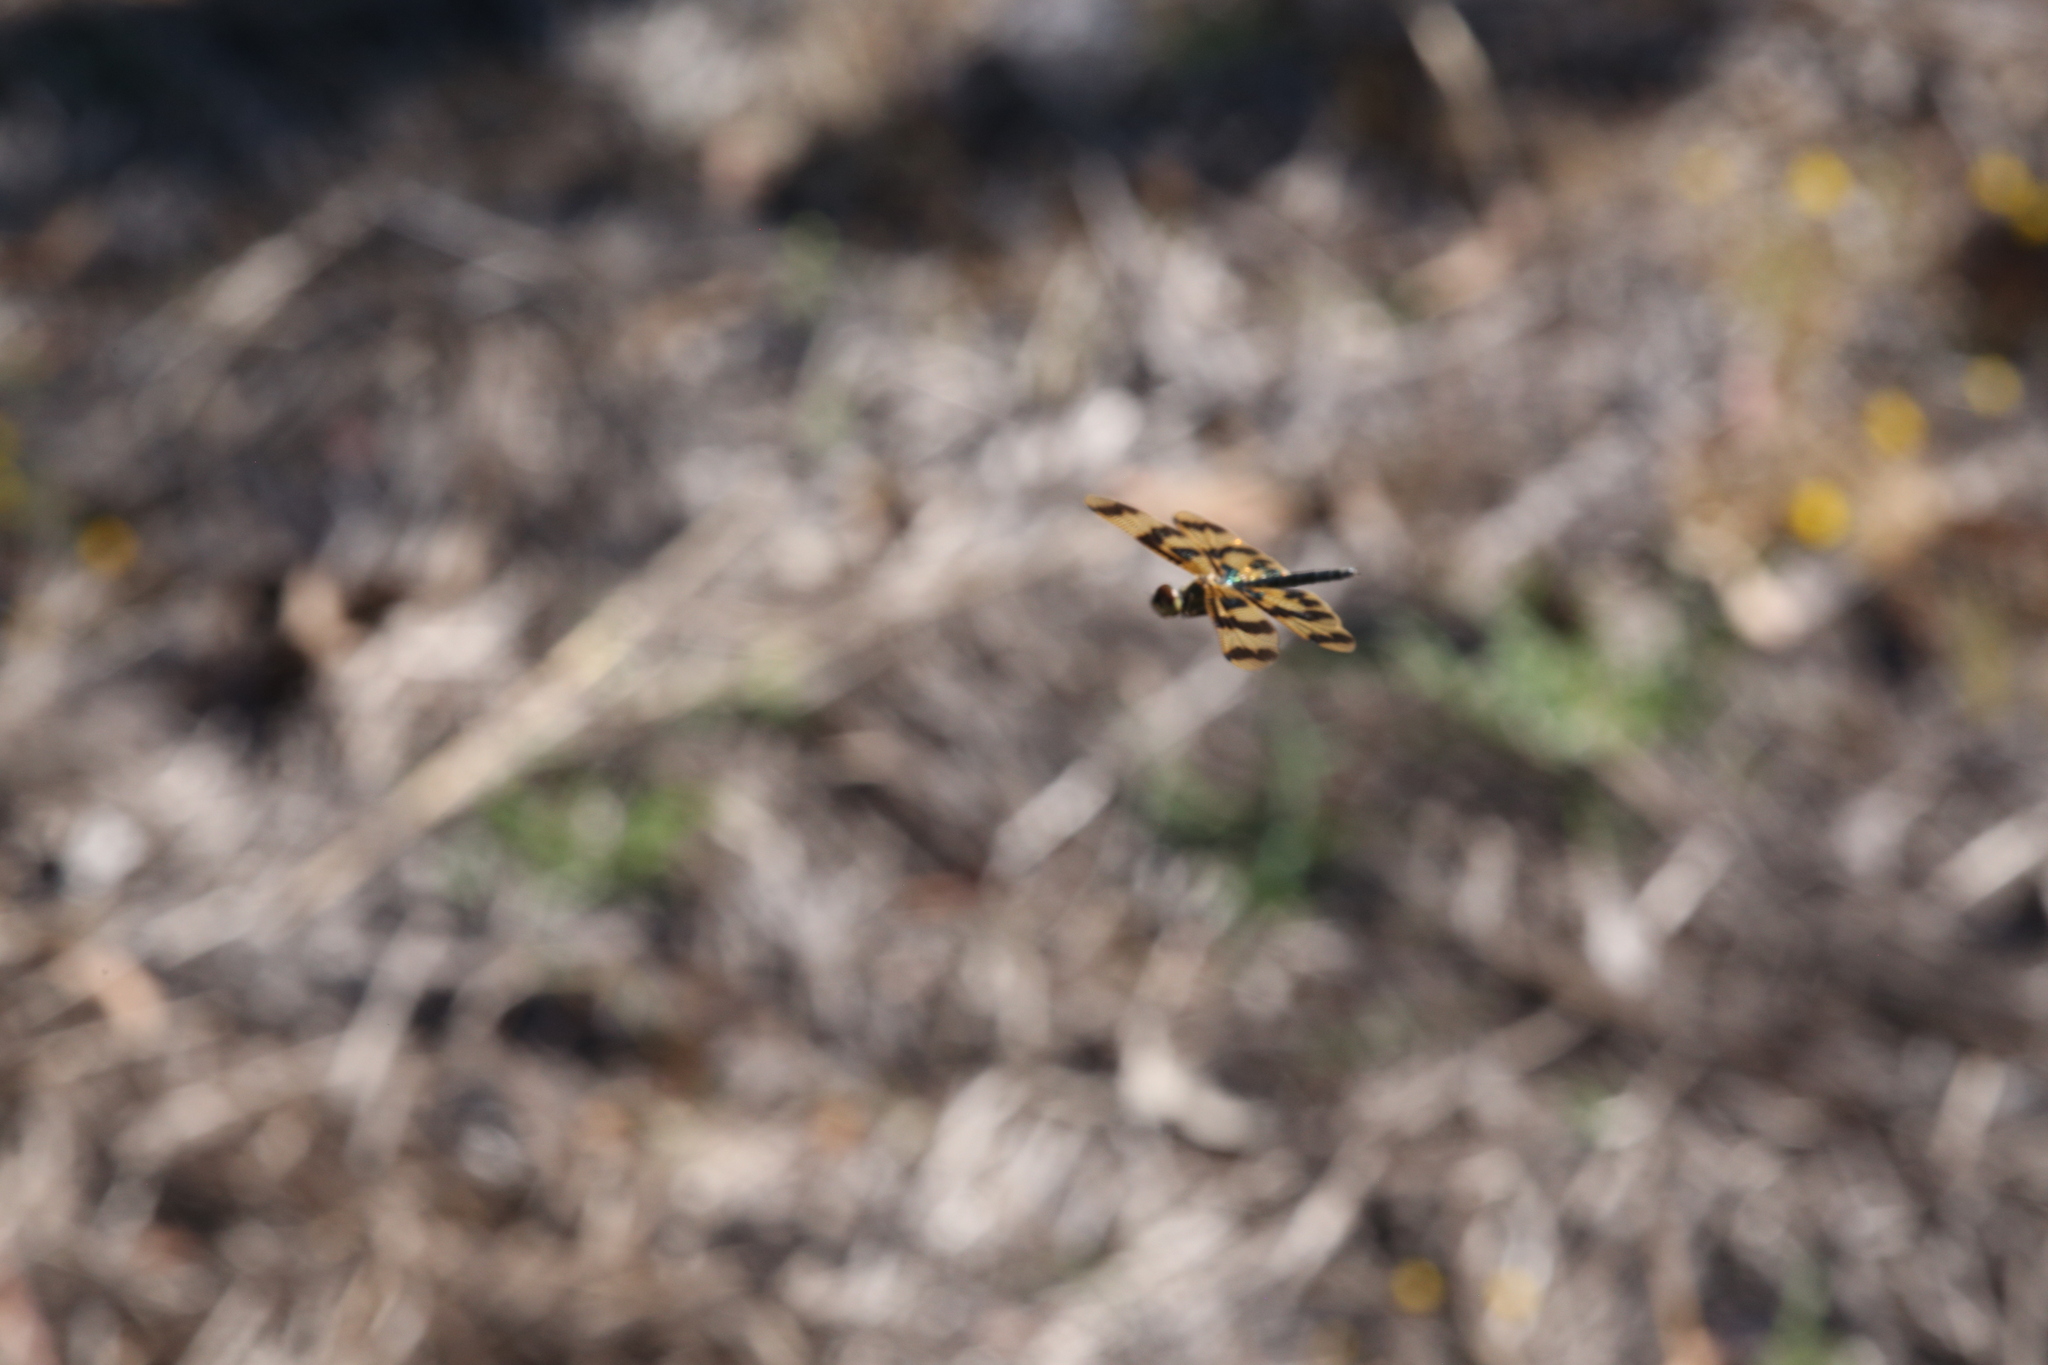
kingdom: Animalia
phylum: Arthropoda
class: Insecta
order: Odonata
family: Libellulidae
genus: Rhyothemis
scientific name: Rhyothemis graphiptera
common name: Graphic flutterer
